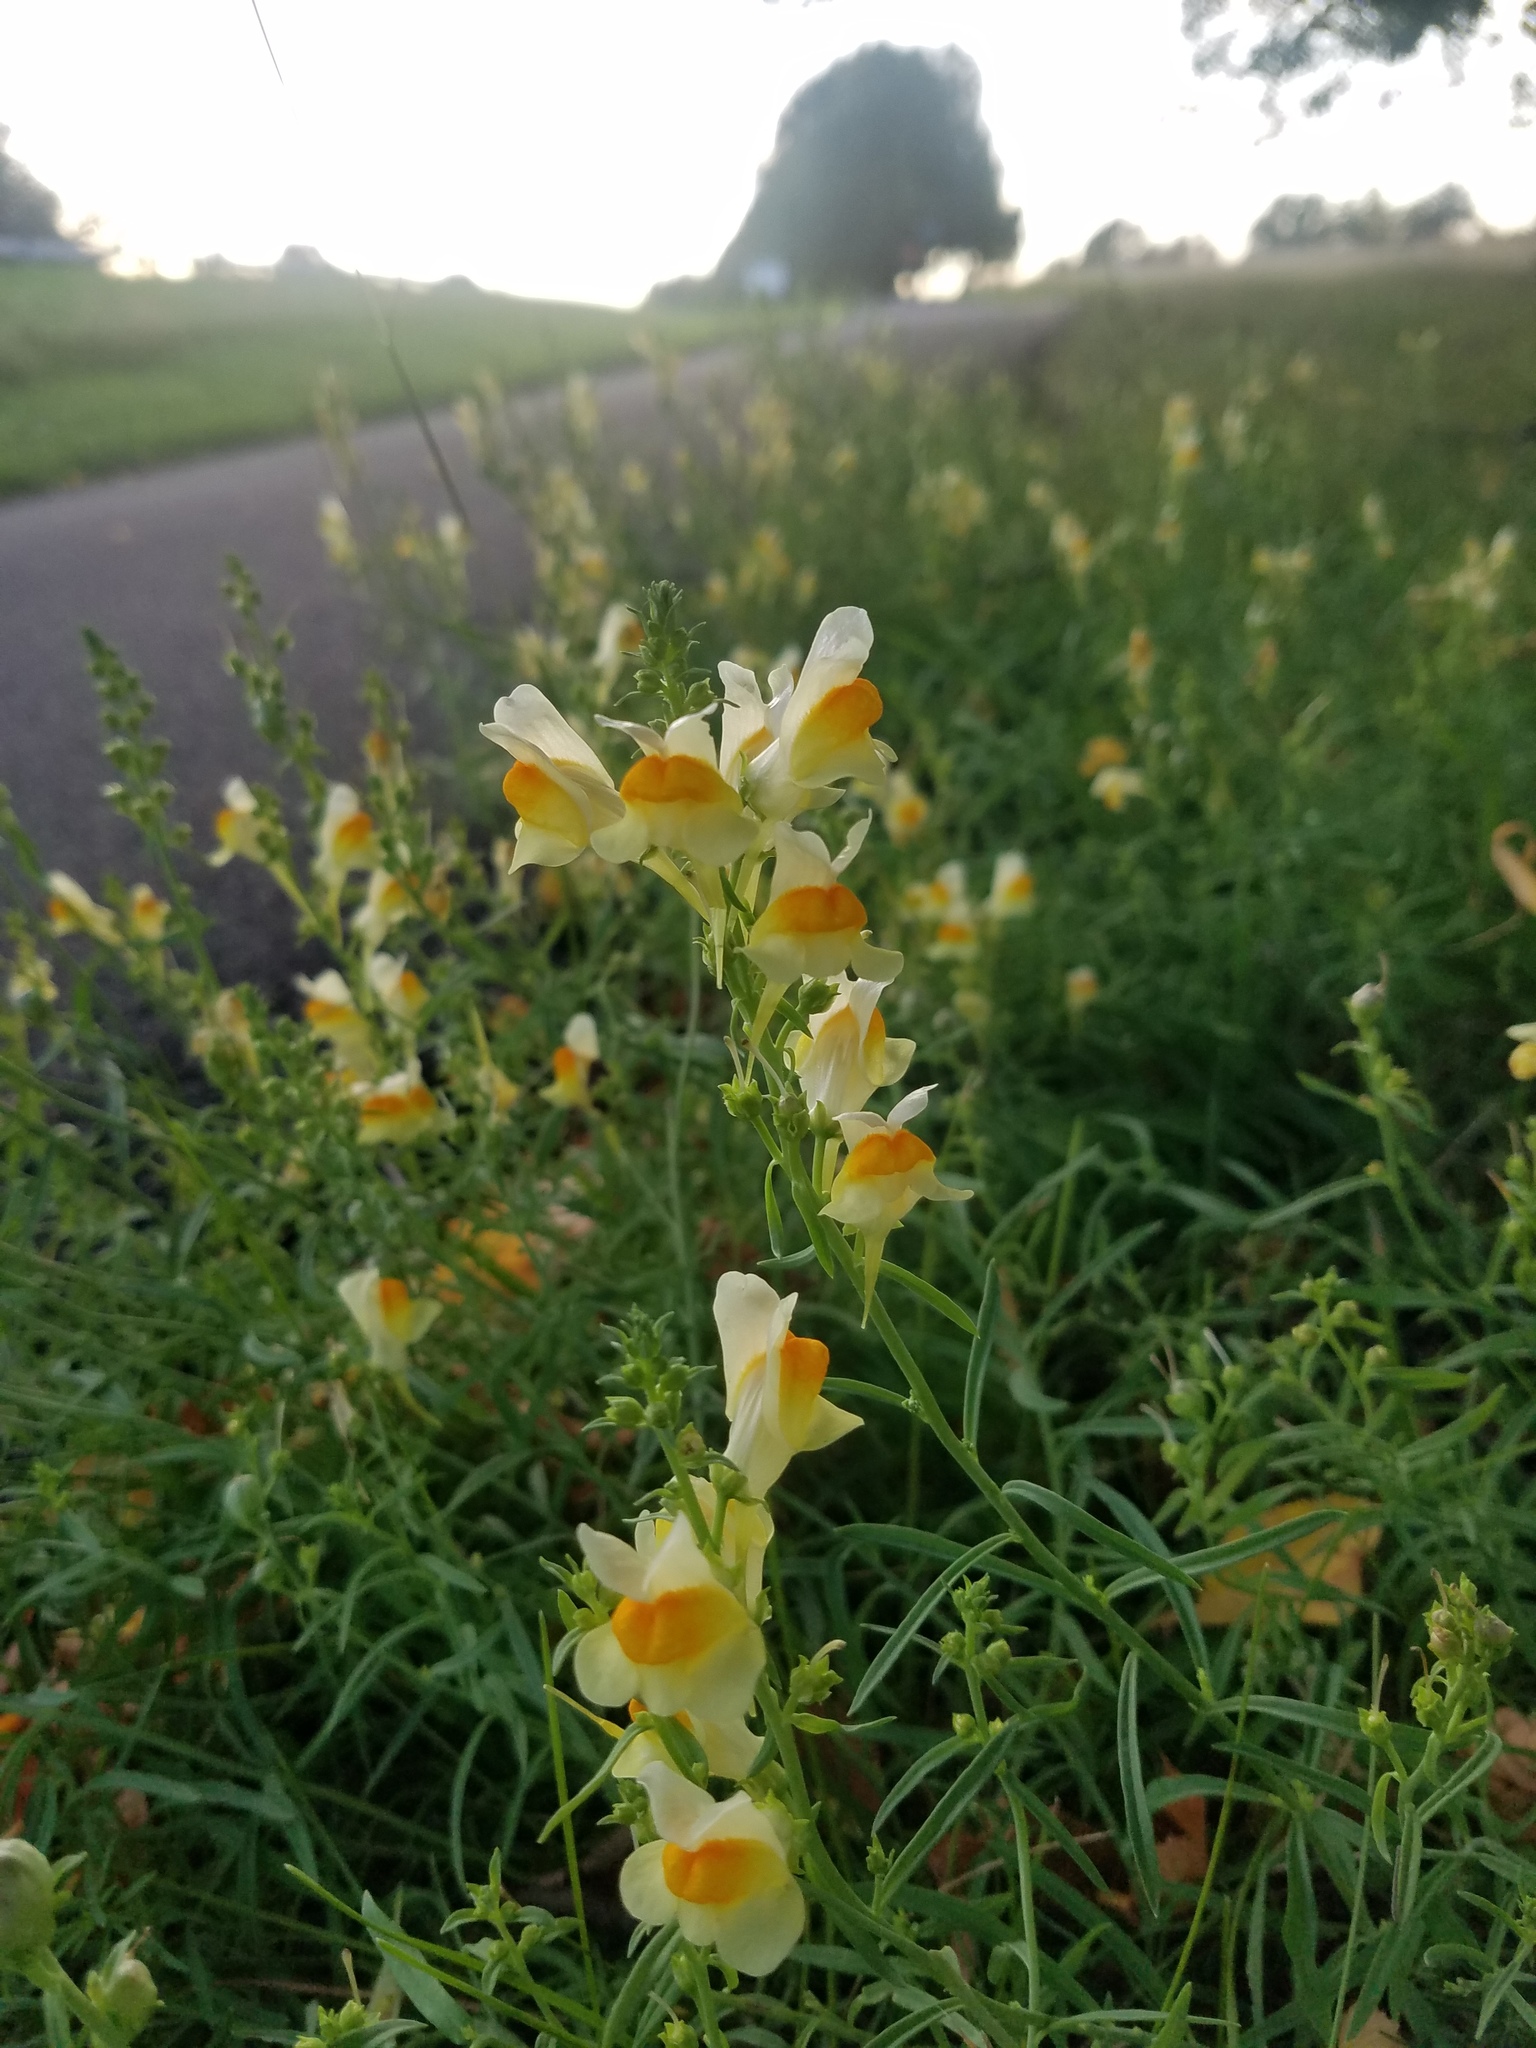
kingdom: Plantae
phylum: Tracheophyta
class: Magnoliopsida
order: Lamiales
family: Plantaginaceae
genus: Linaria
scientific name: Linaria vulgaris
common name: Butter and eggs
